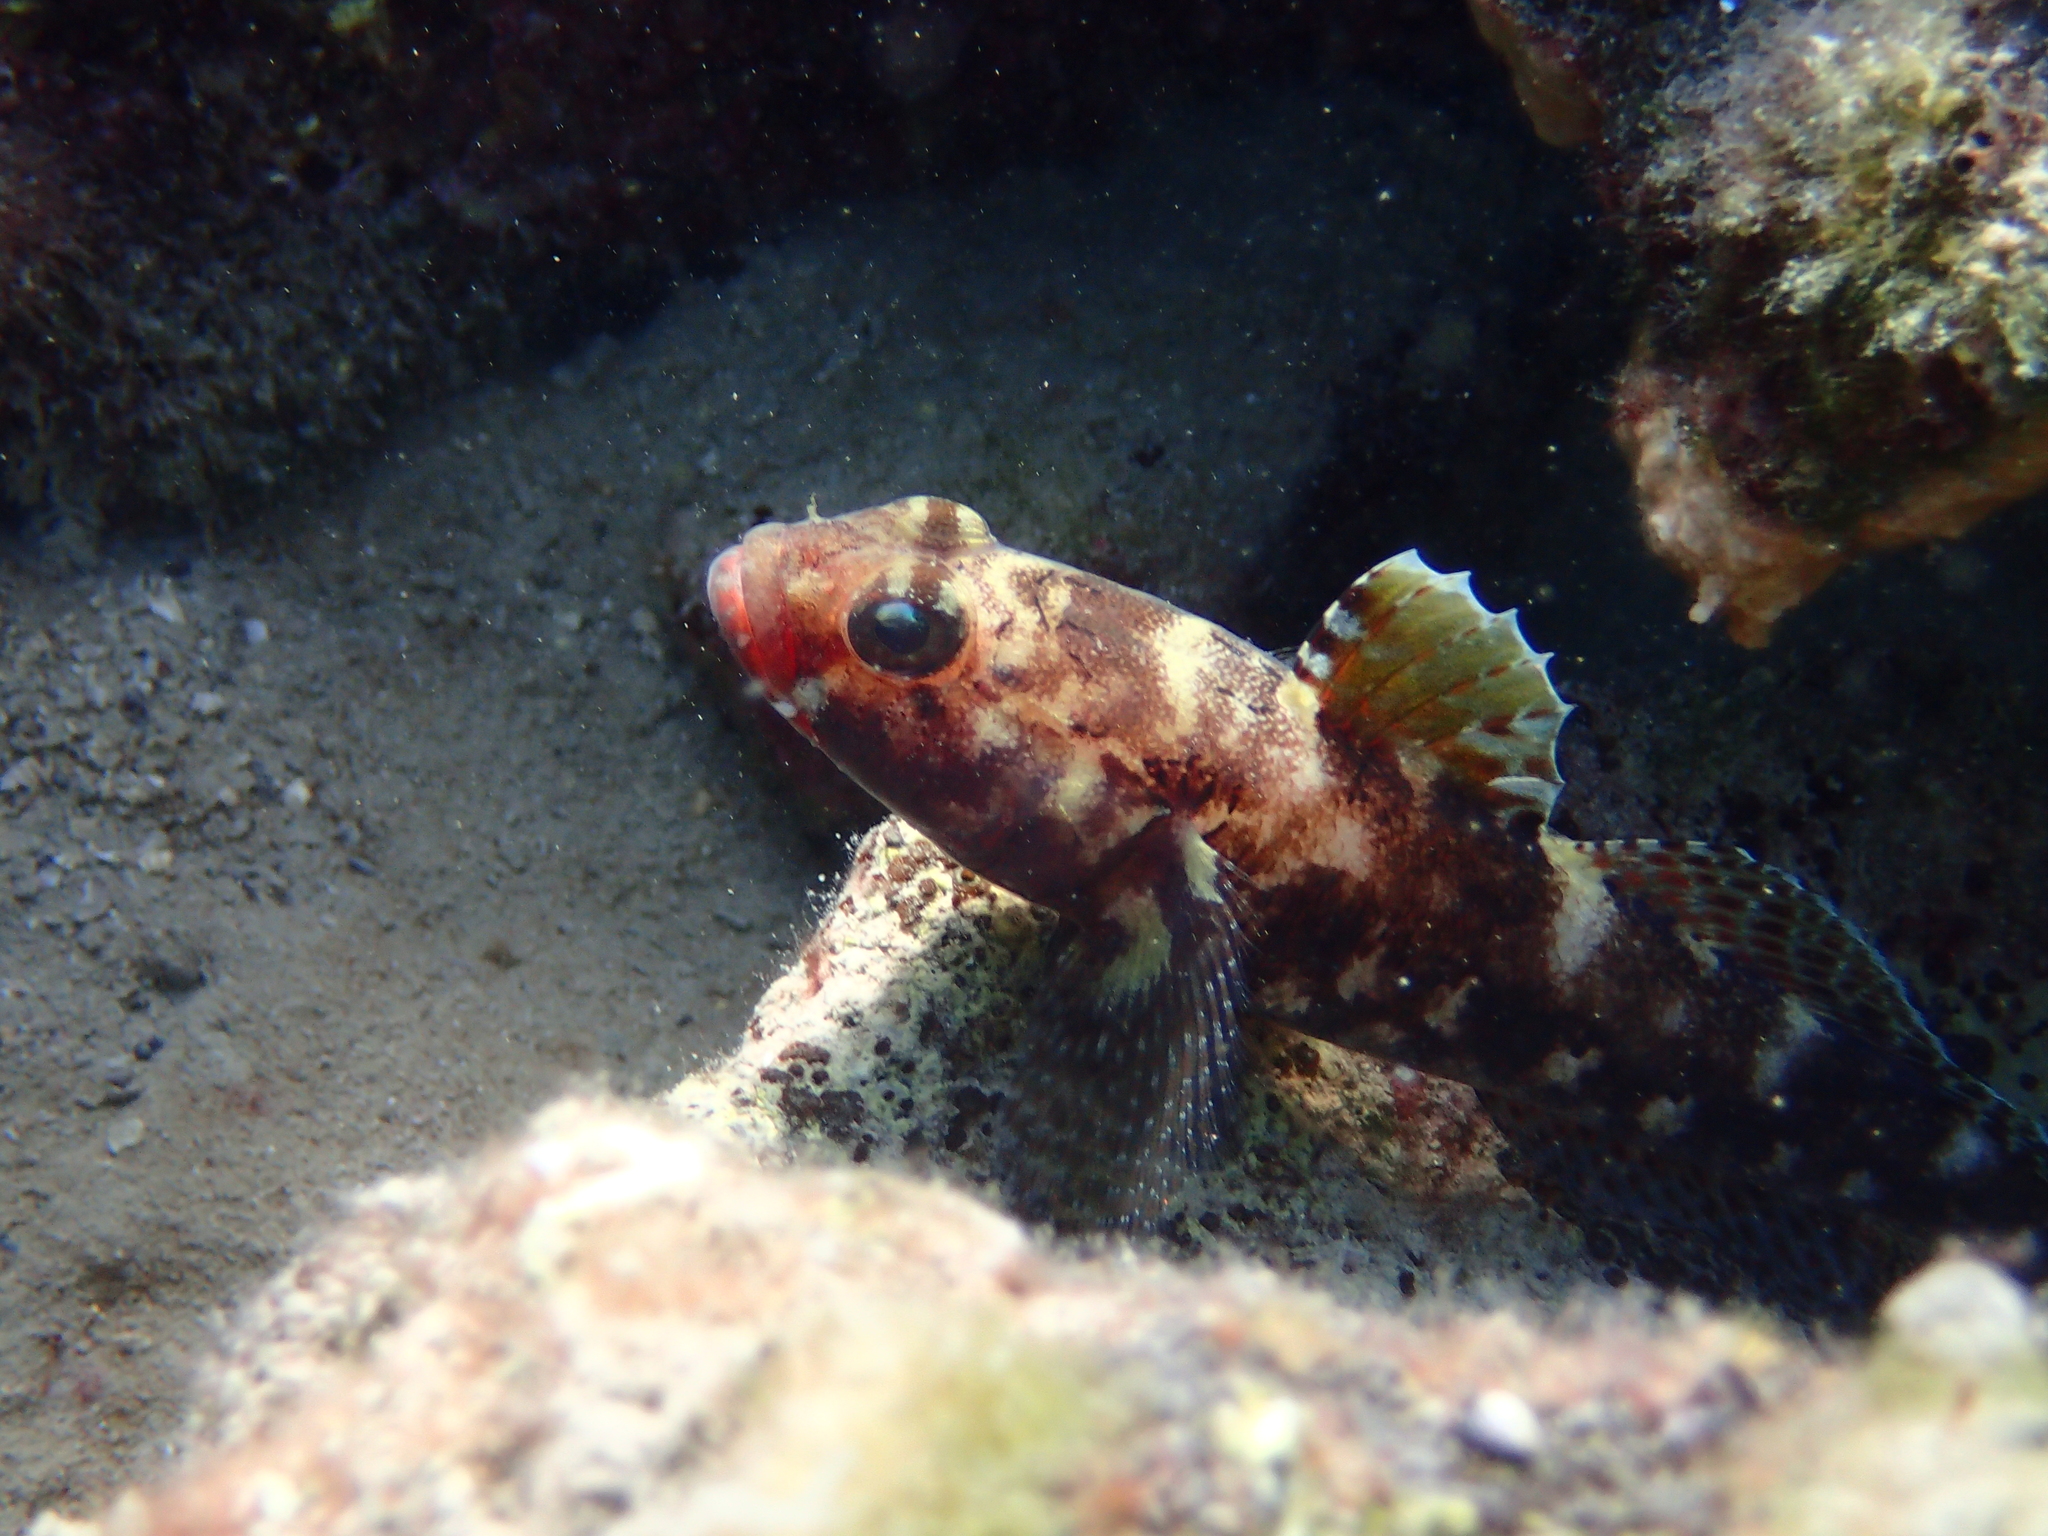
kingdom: Animalia
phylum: Chordata
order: Perciformes
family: Gobiidae
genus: Gobius
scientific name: Gobius cruentatus
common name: Red-mouthed goby
